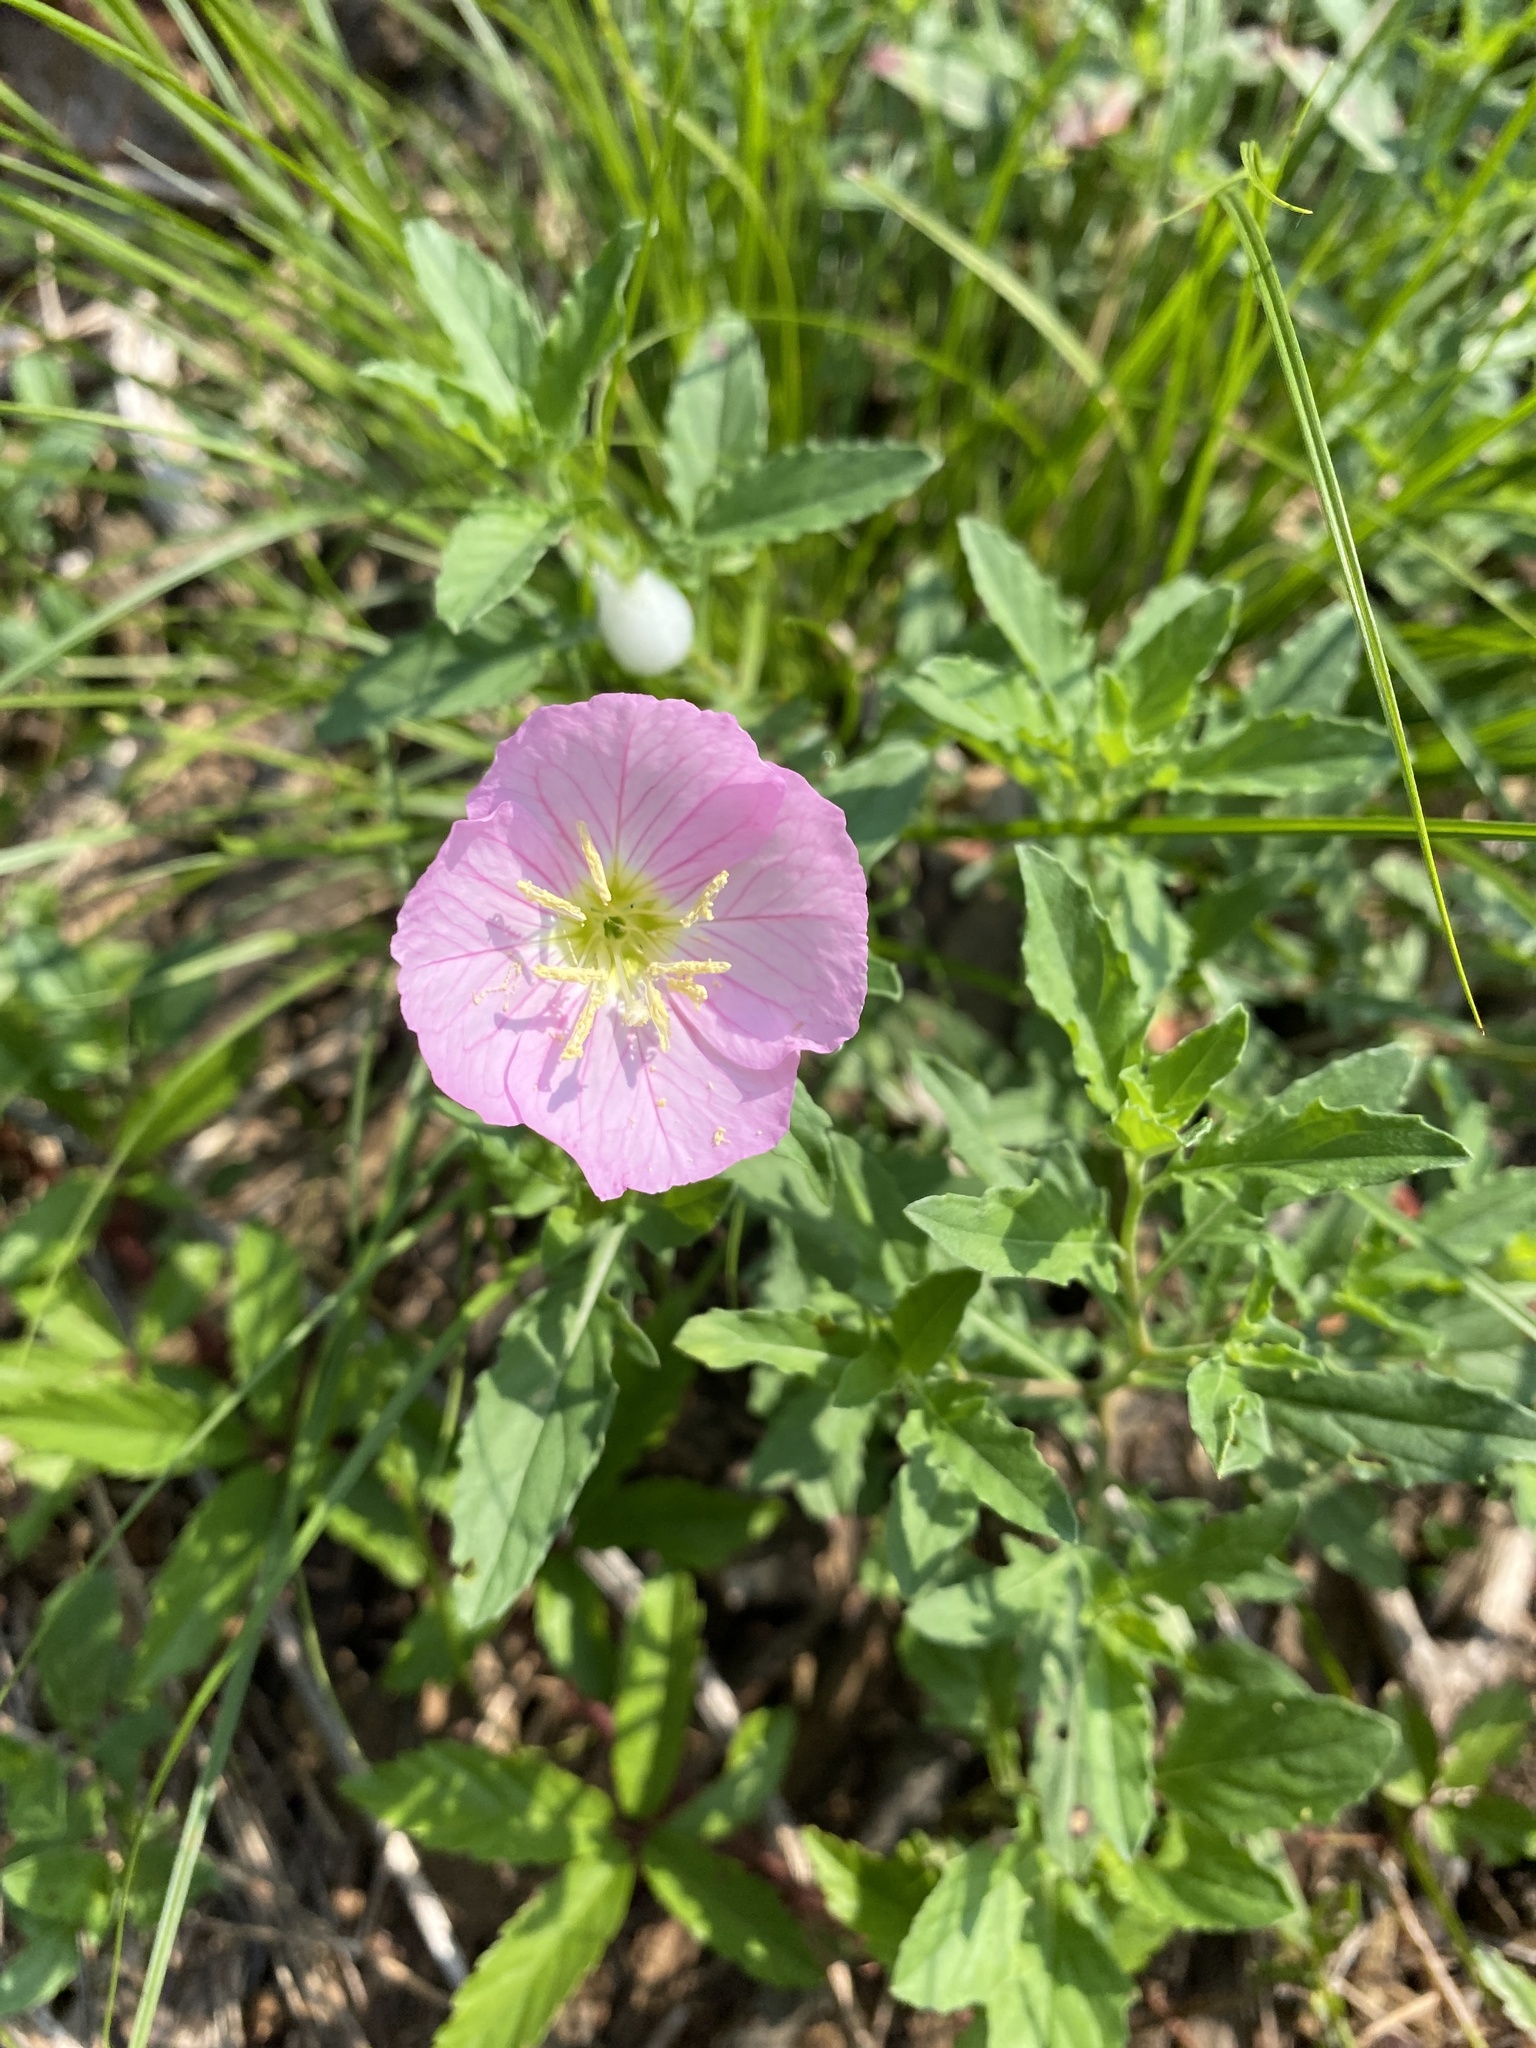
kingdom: Plantae
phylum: Tracheophyta
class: Magnoliopsida
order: Myrtales
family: Onagraceae
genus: Oenothera
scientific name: Oenothera speciosa
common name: White evening-primrose
